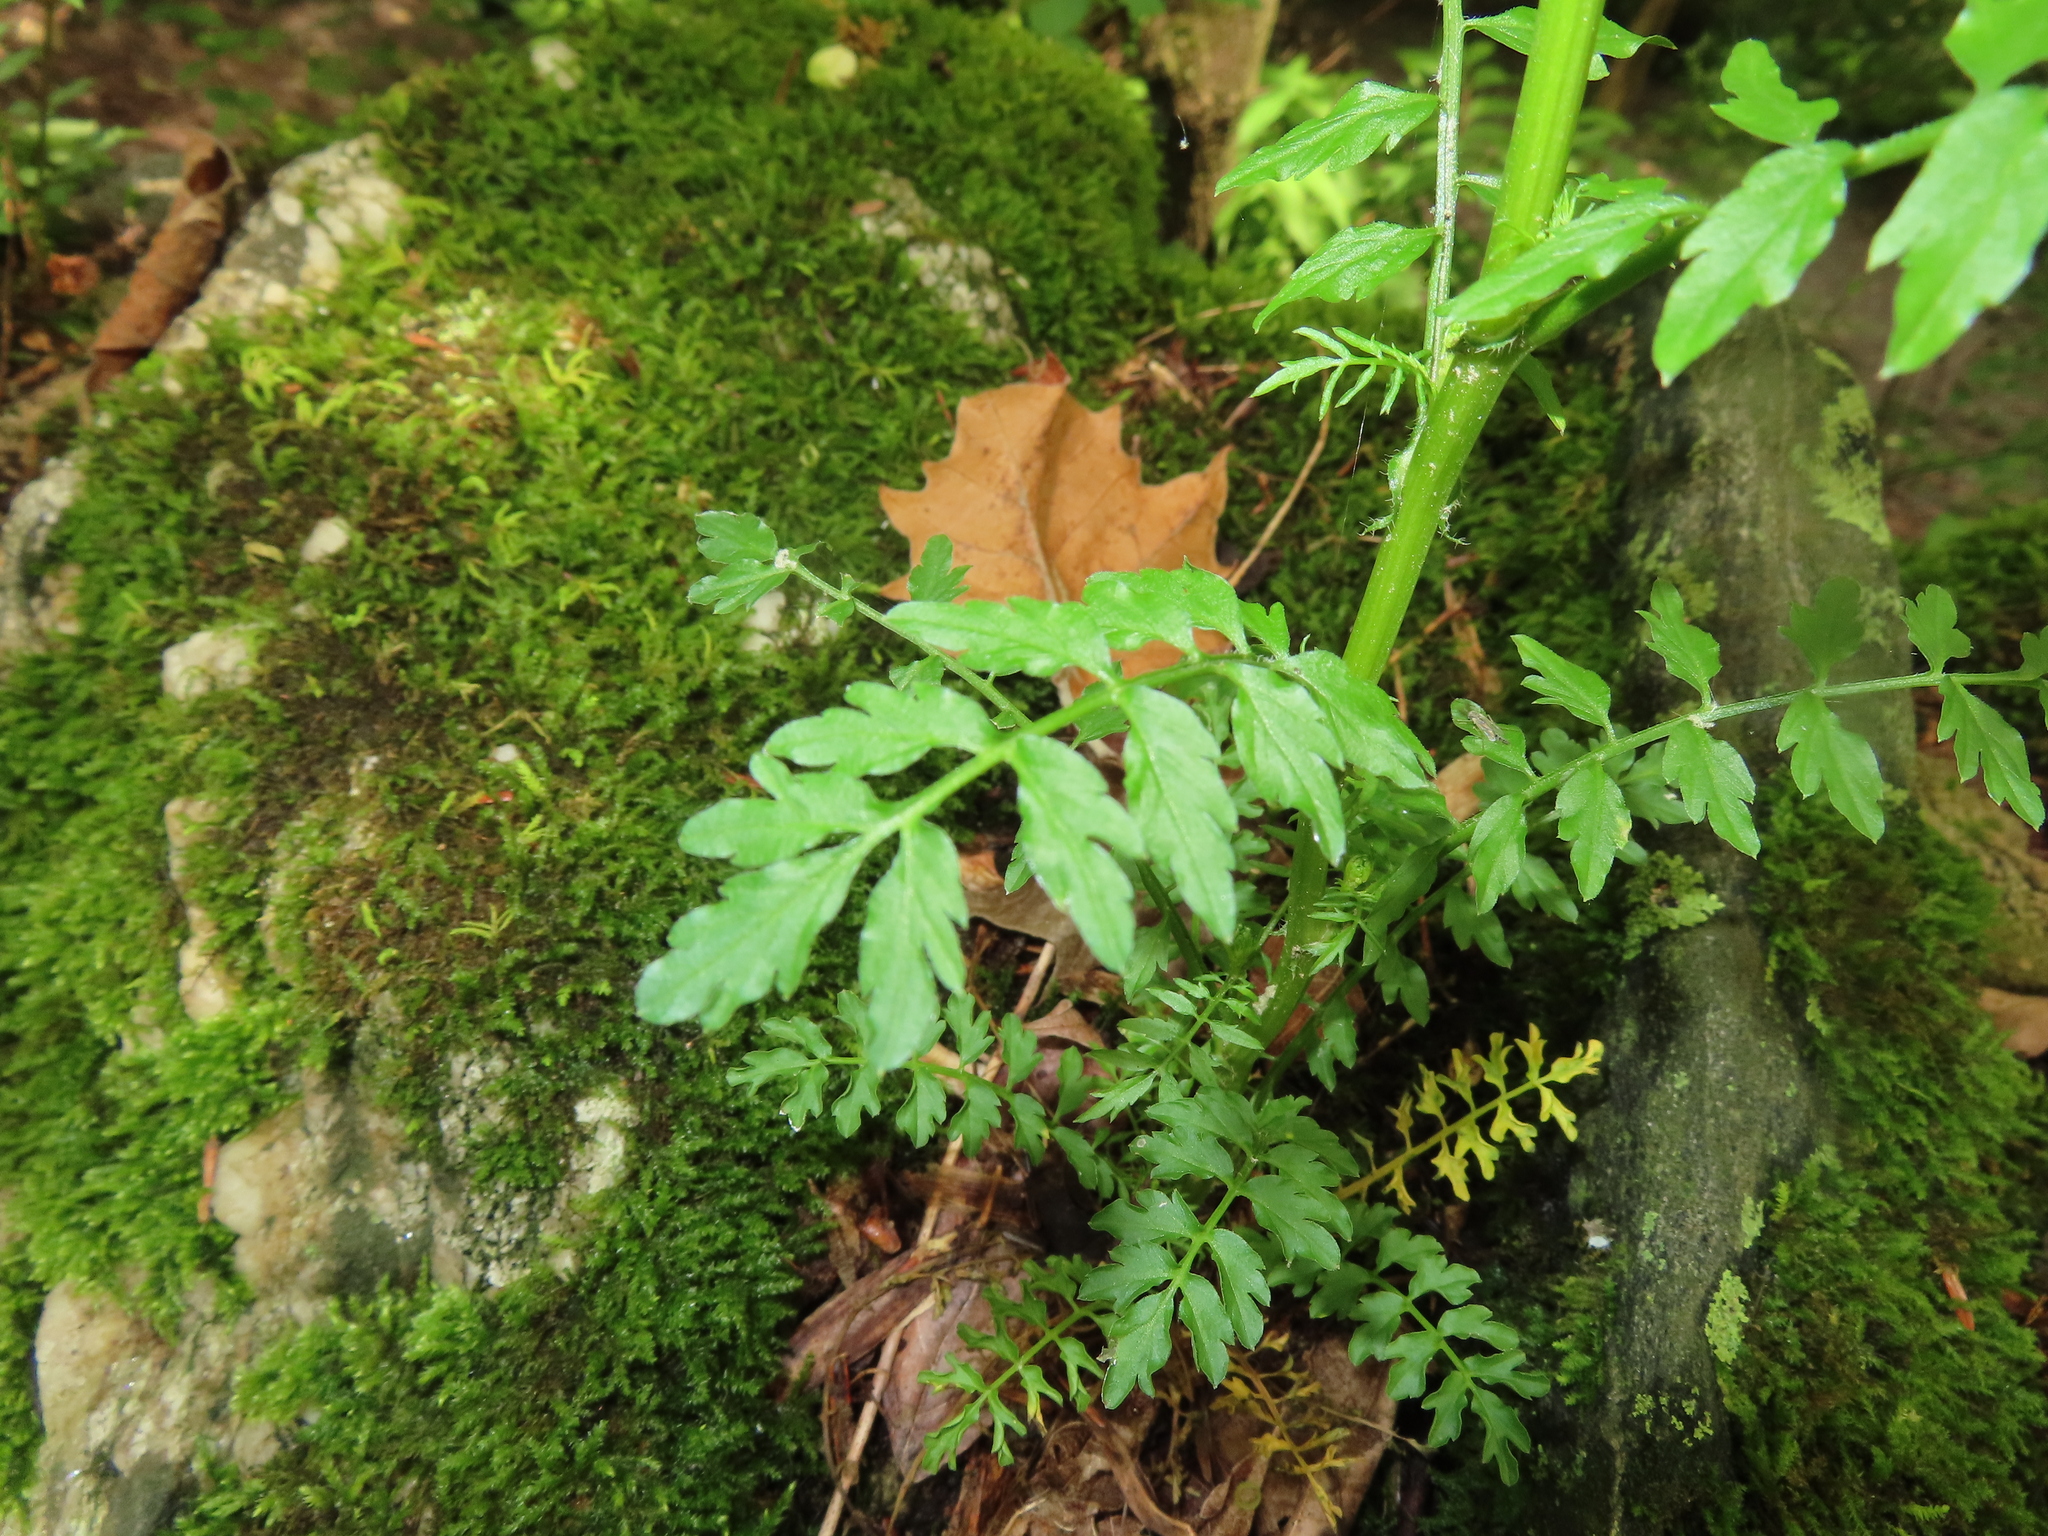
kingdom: Plantae
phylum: Tracheophyta
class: Magnoliopsida
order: Brassicales
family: Brassicaceae
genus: Cardamine
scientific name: Cardamine impatiens
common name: Narrow-leaved bitter-cress
